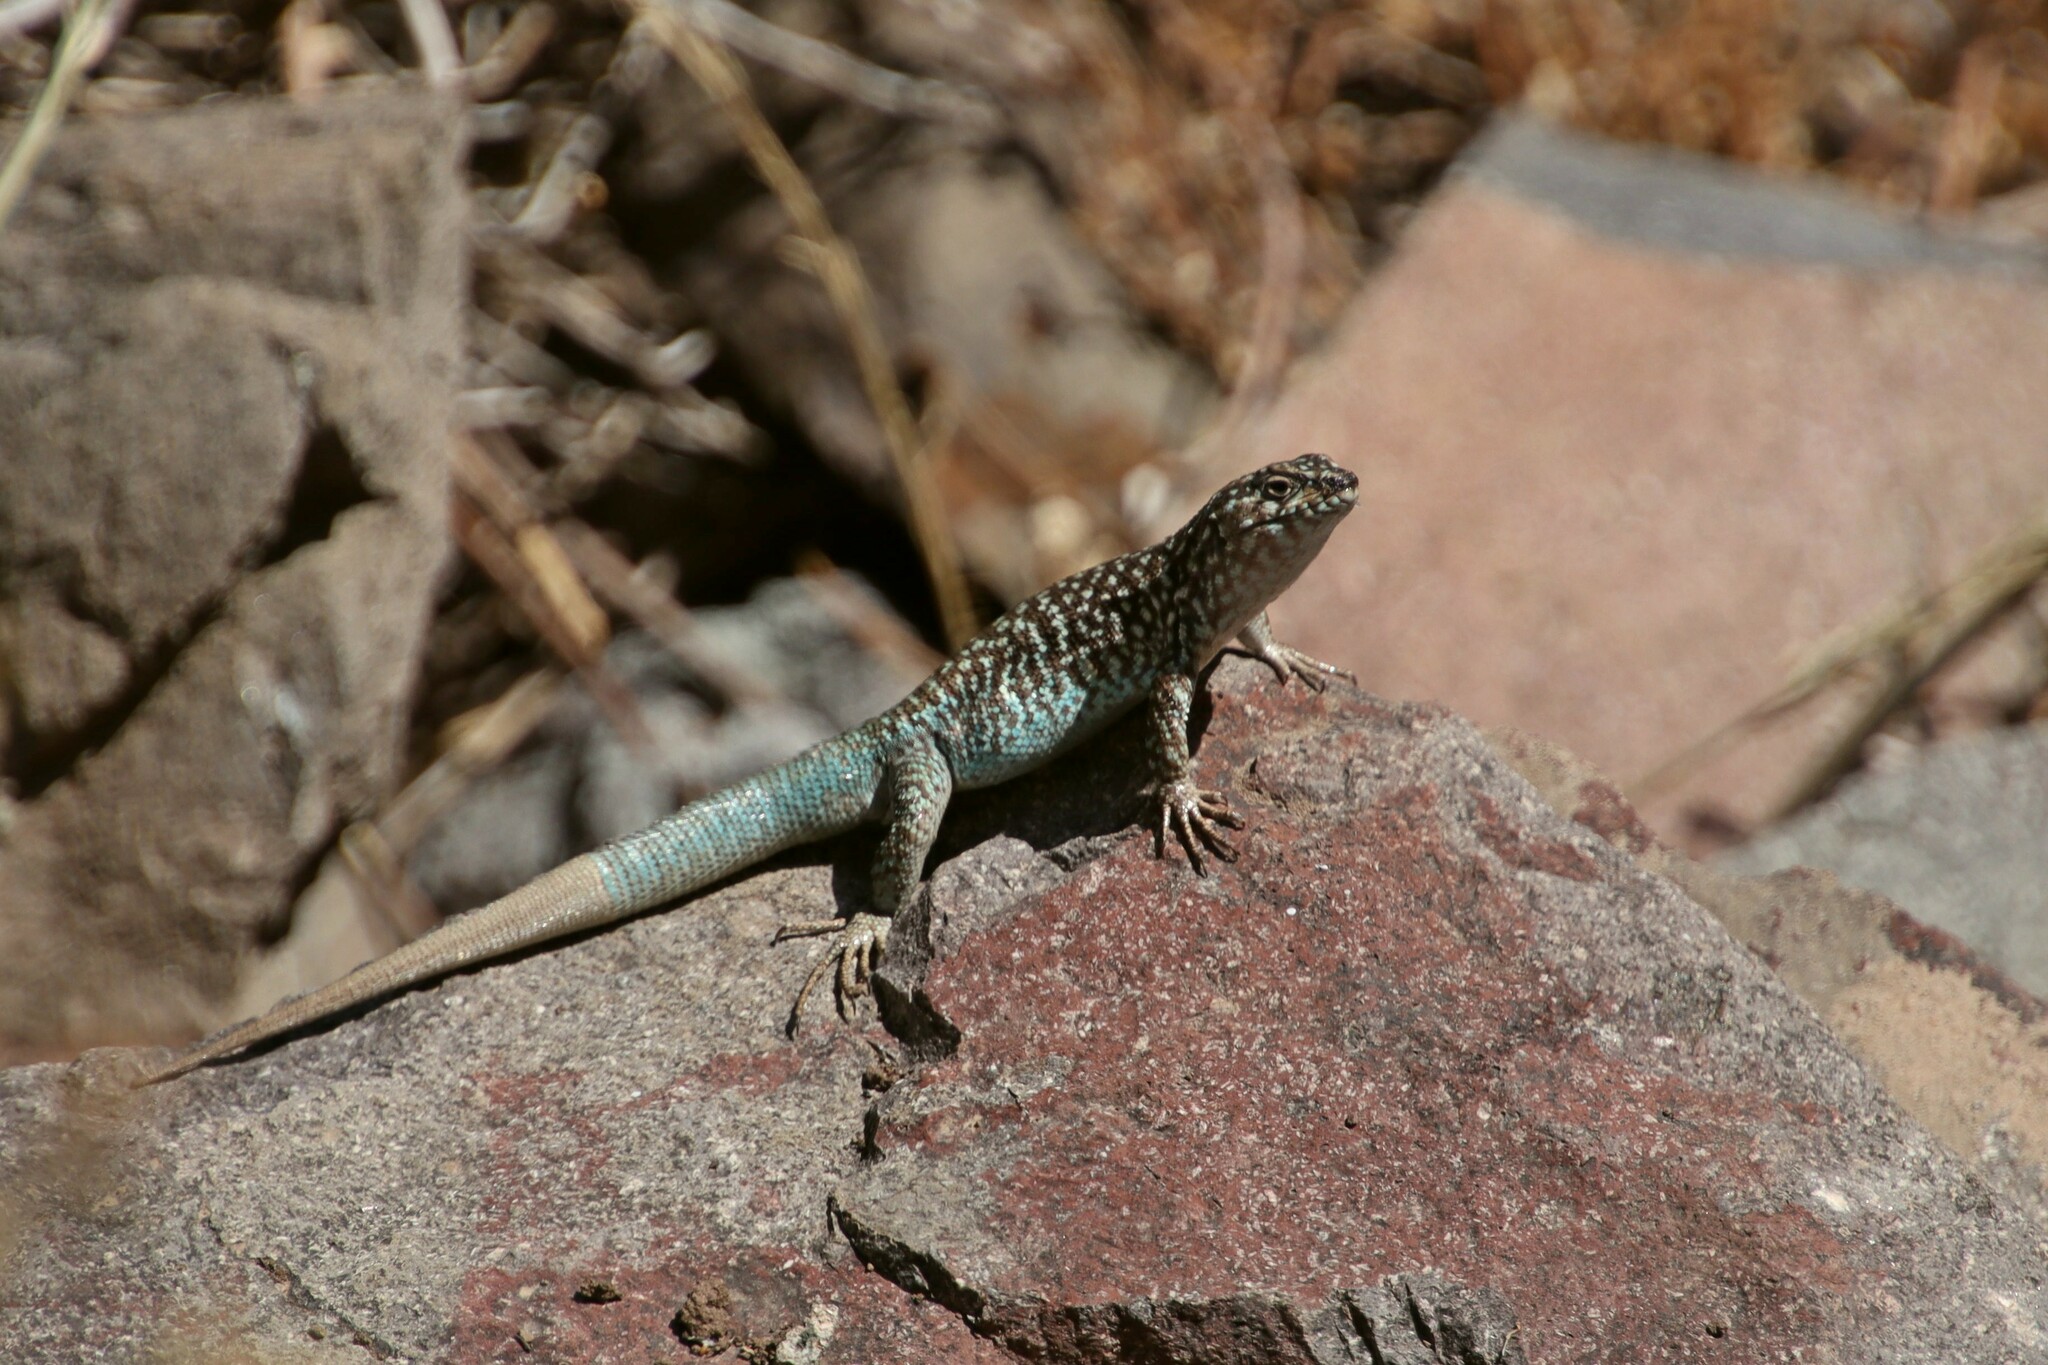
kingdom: Animalia
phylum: Chordata
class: Squamata
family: Liolaemidae
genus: Liolaemus
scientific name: Liolaemus nigroviridis
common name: Black-green tree iguana
